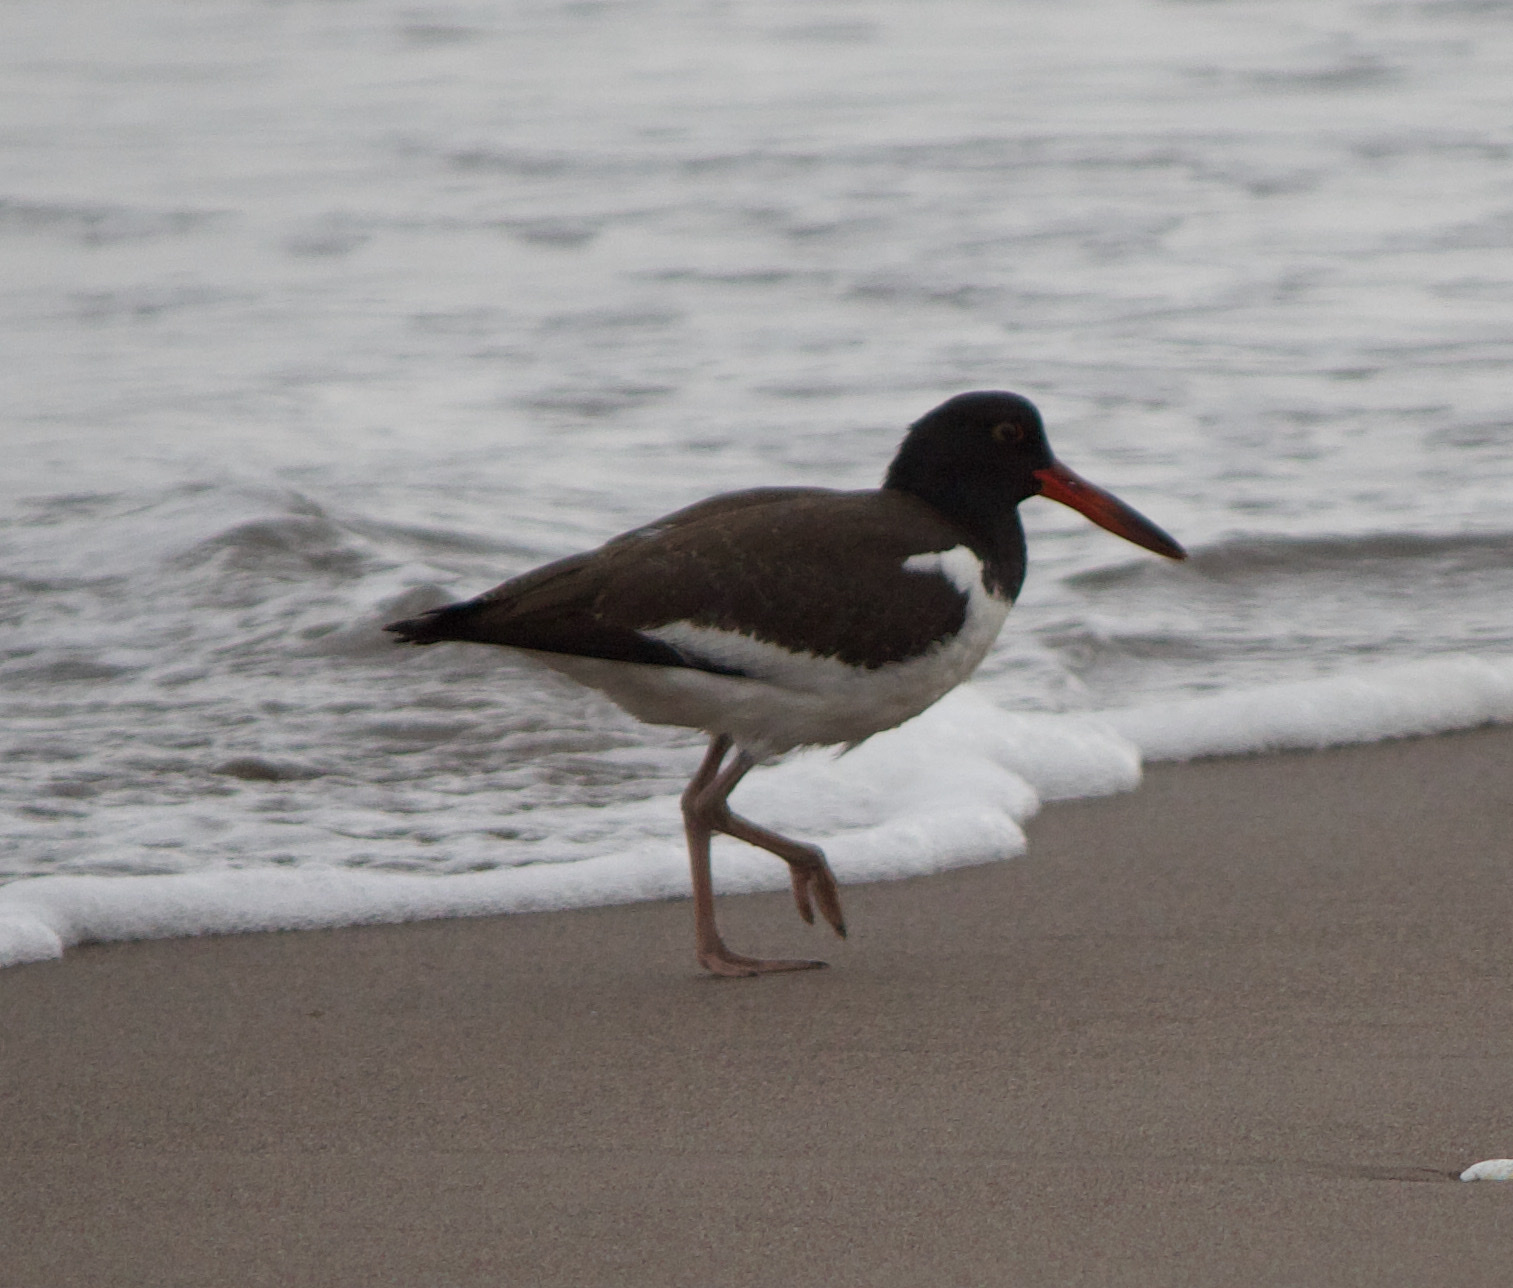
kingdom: Animalia
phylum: Chordata
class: Aves
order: Charadriiformes
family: Haematopodidae
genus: Haematopus
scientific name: Haematopus palliatus
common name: American oystercatcher
